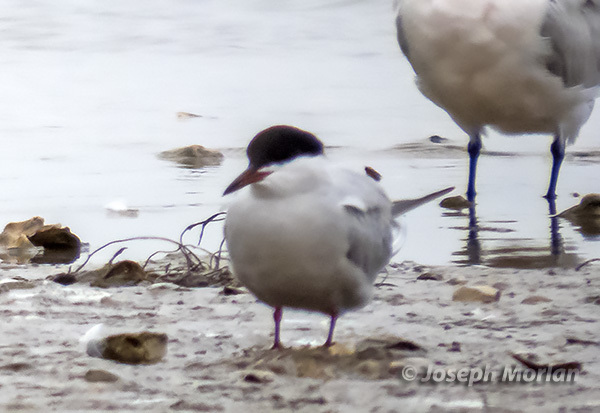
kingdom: Animalia
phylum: Chordata
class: Aves
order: Charadriiformes
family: Laridae
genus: Sterna
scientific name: Sterna hirundo
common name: Common tern
